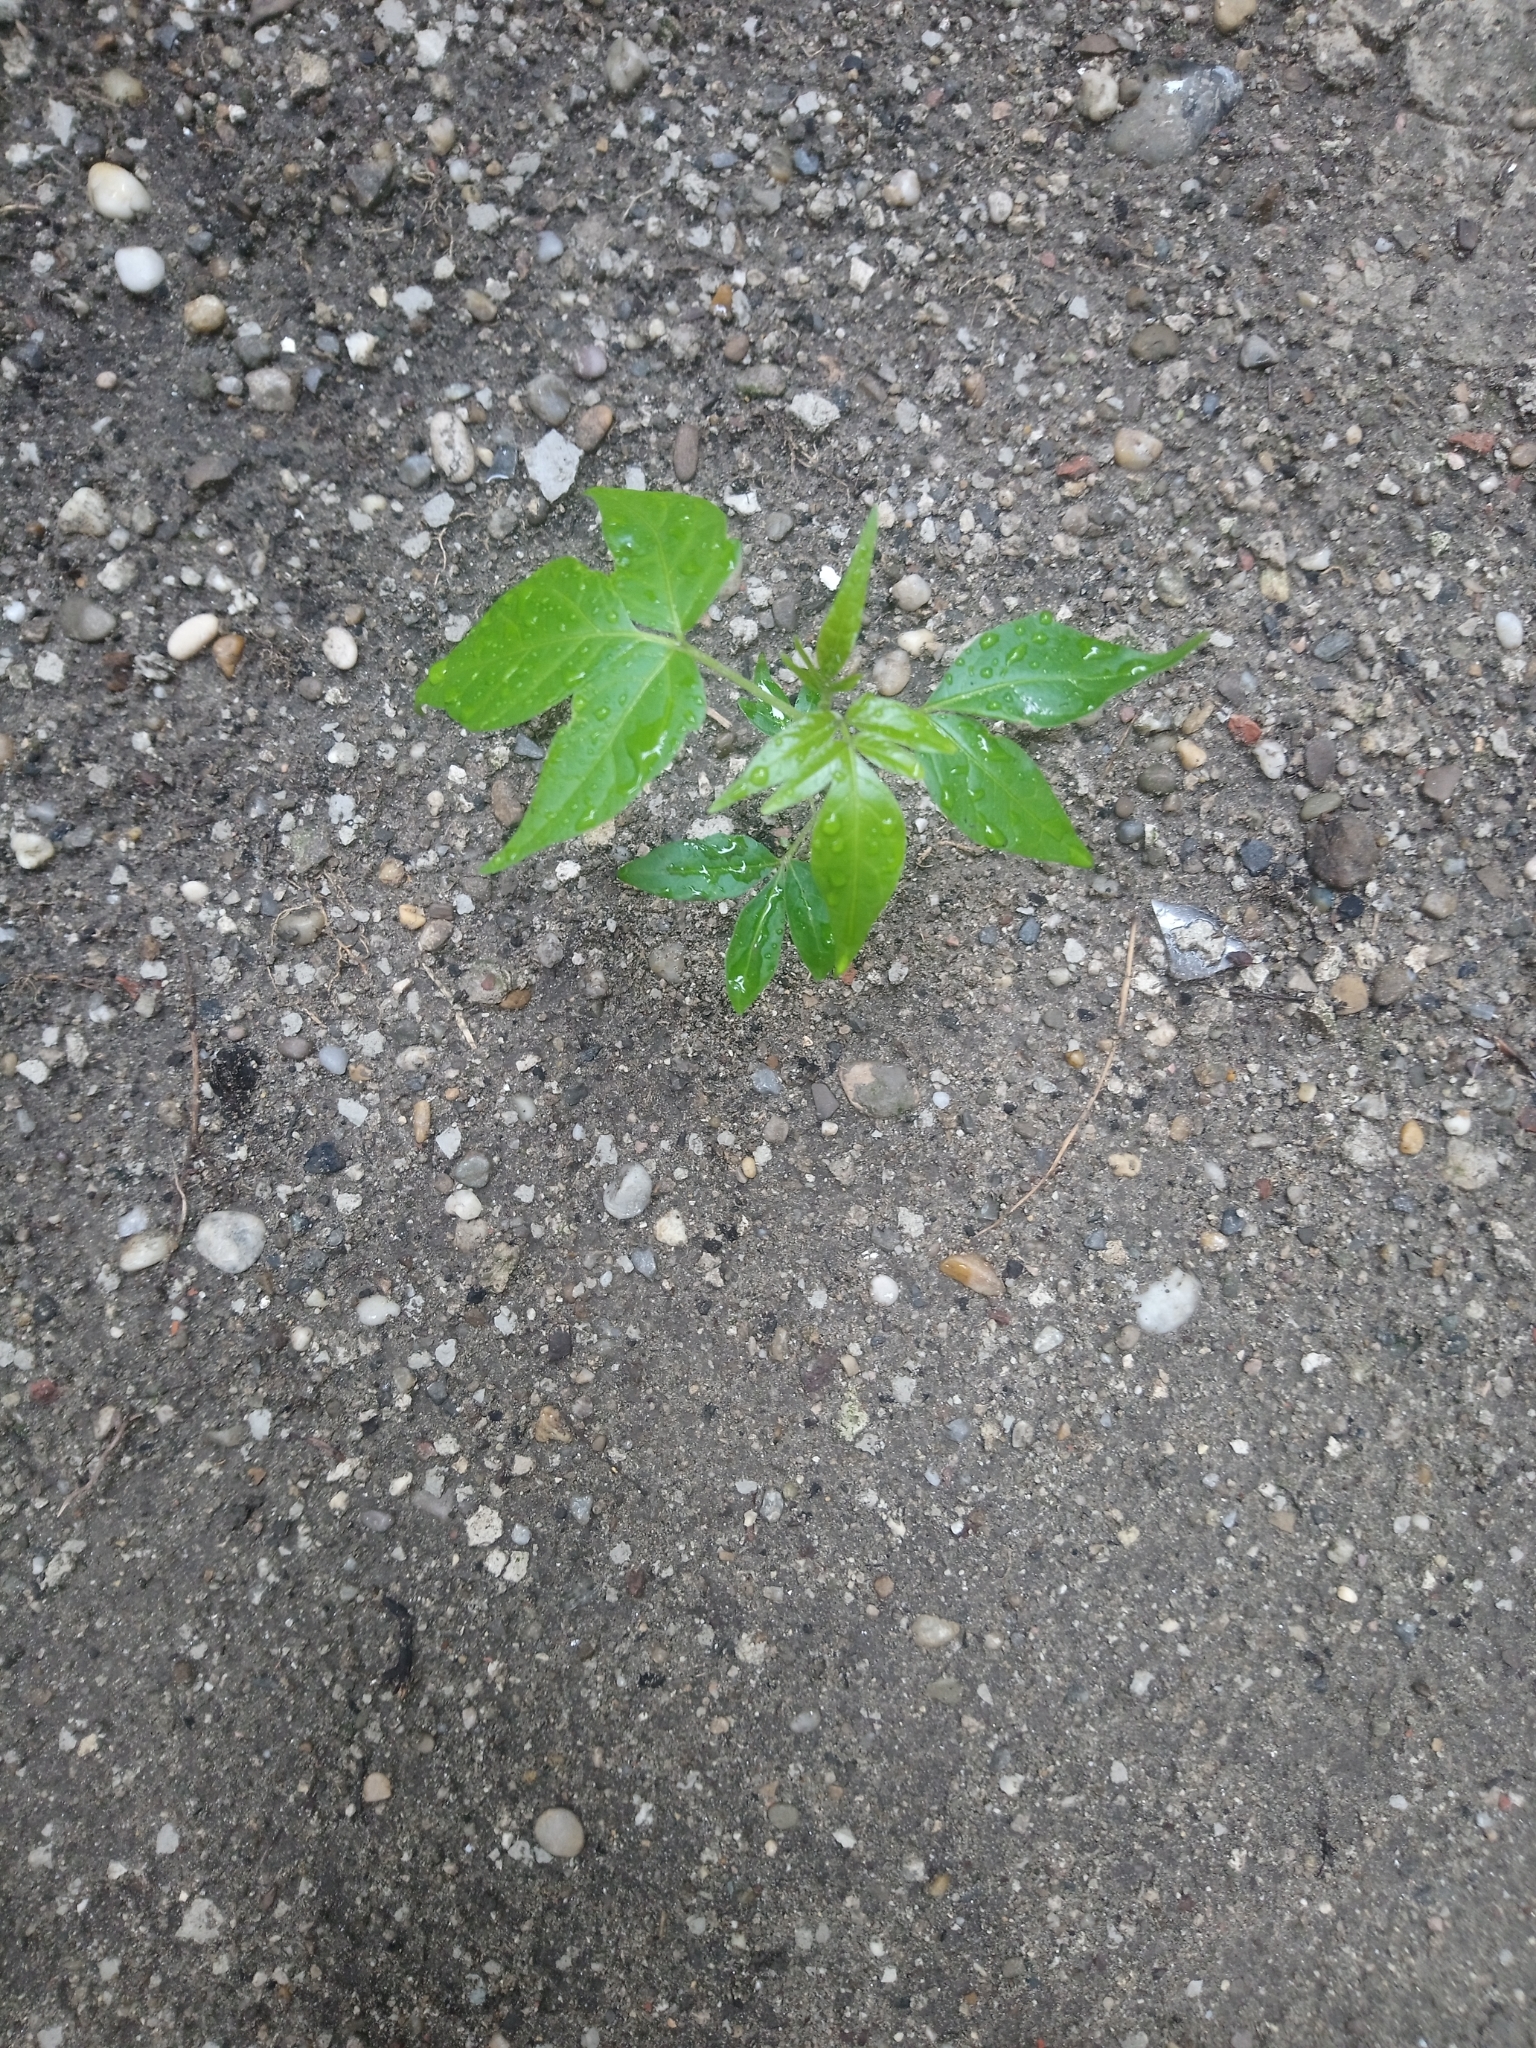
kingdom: Plantae
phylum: Tracheophyta
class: Magnoliopsida
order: Sapindales
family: Simaroubaceae
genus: Ailanthus
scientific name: Ailanthus altissima
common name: Tree-of-heaven
